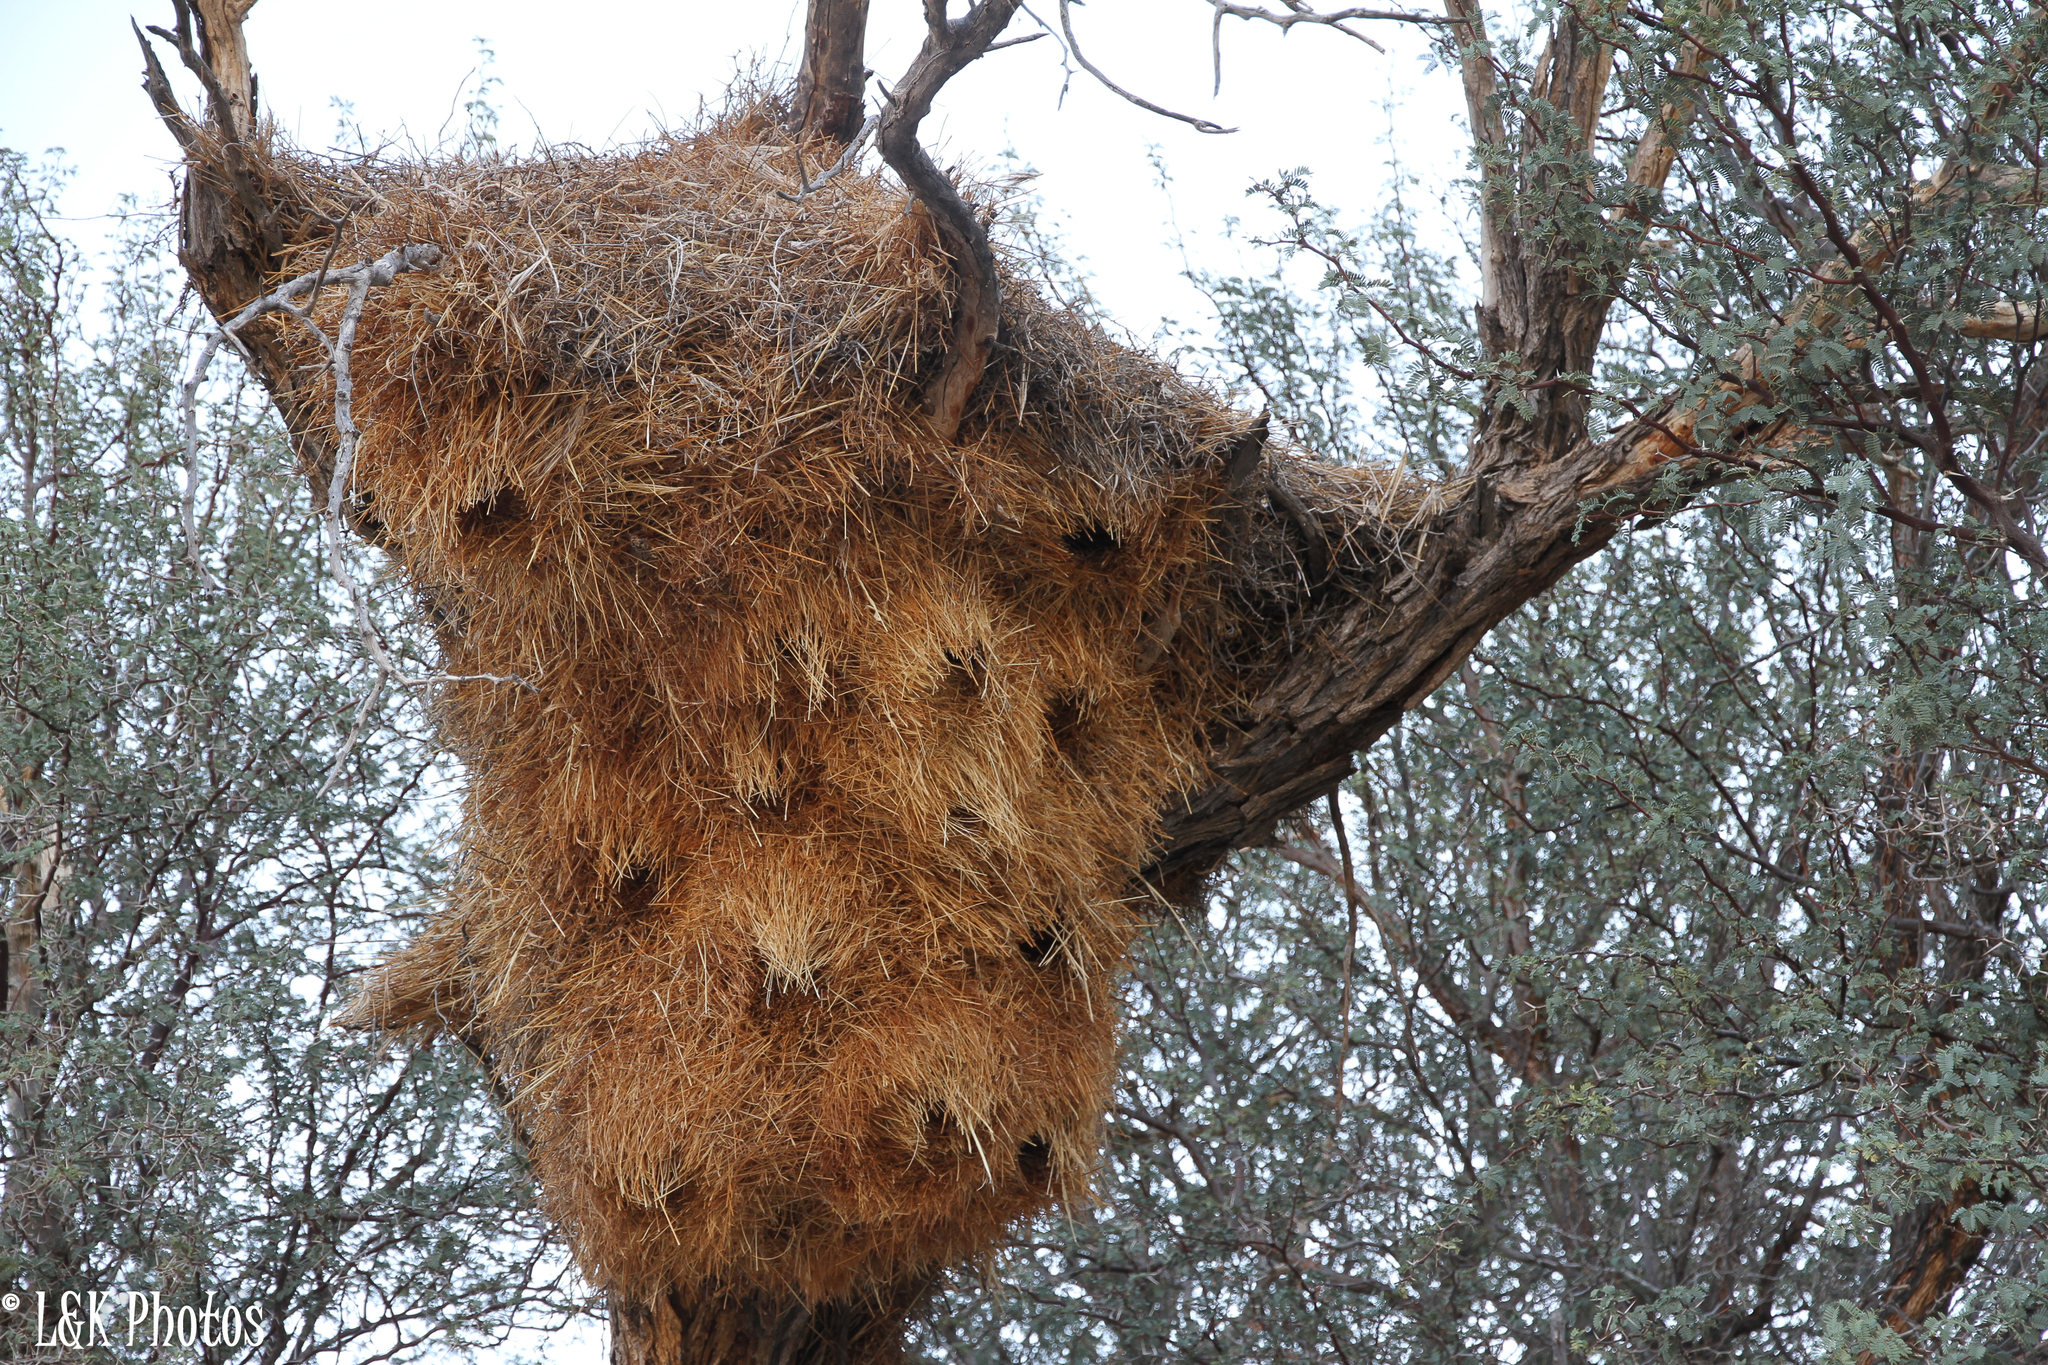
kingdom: Animalia
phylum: Chordata
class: Aves
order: Passeriformes
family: Passeridae
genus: Philetairus
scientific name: Philetairus socius
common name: Sociable weaver
